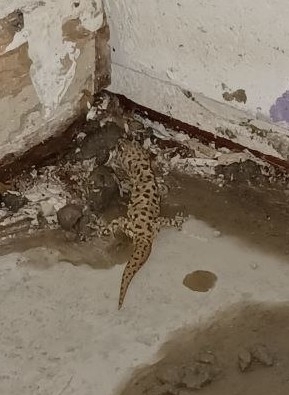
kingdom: Animalia
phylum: Chordata
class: Squamata
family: Gekkonidae
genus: Hemidactylus
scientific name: Hemidactylus turcicus
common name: Turkish gecko
